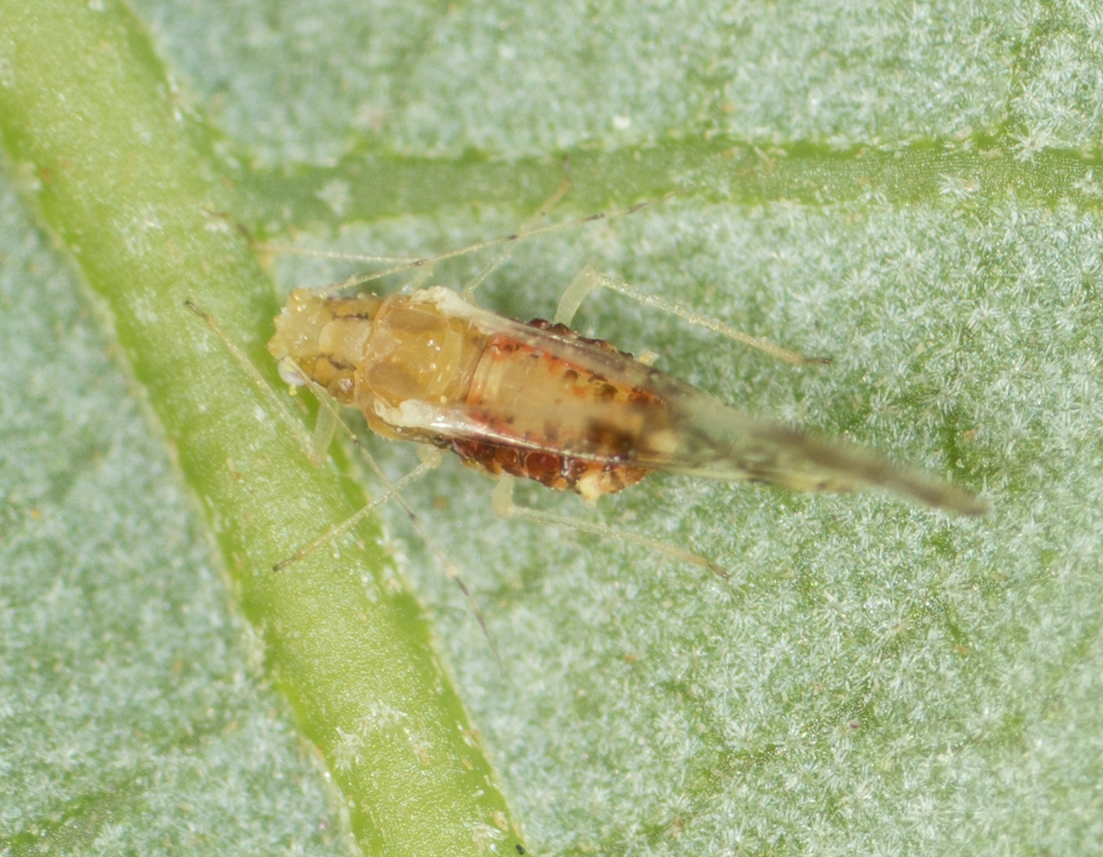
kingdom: Animalia
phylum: Arthropoda
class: Insecta
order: Hemiptera
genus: Neomyzocallis
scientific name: Neomyzocallis
